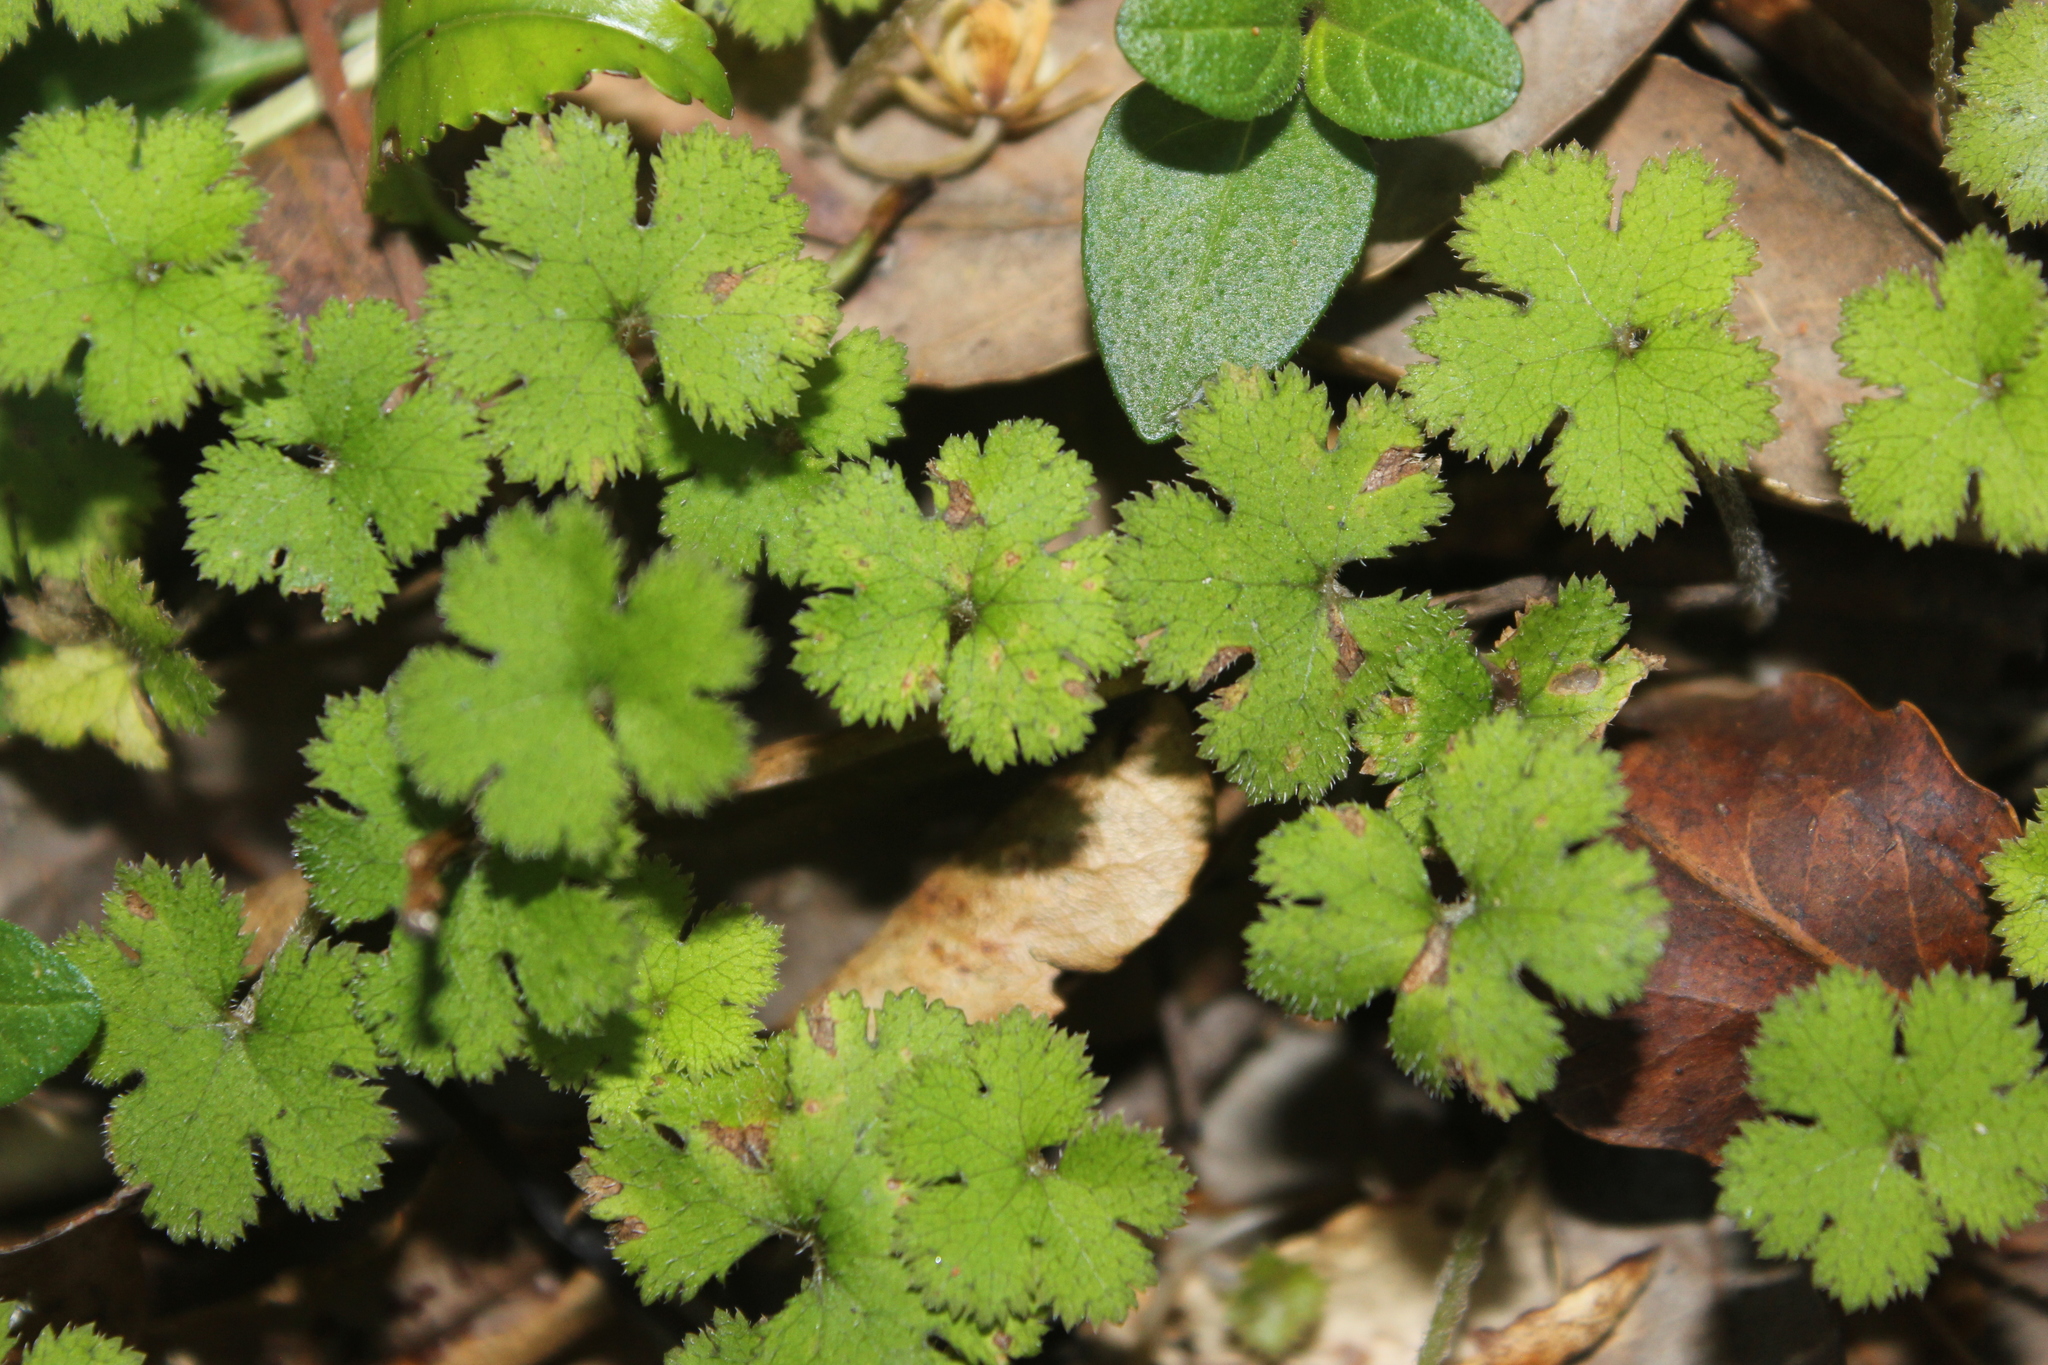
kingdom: Plantae
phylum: Tracheophyta
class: Magnoliopsida
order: Apiales
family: Araliaceae
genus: Hydrocotyle
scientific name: Hydrocotyle elongata
